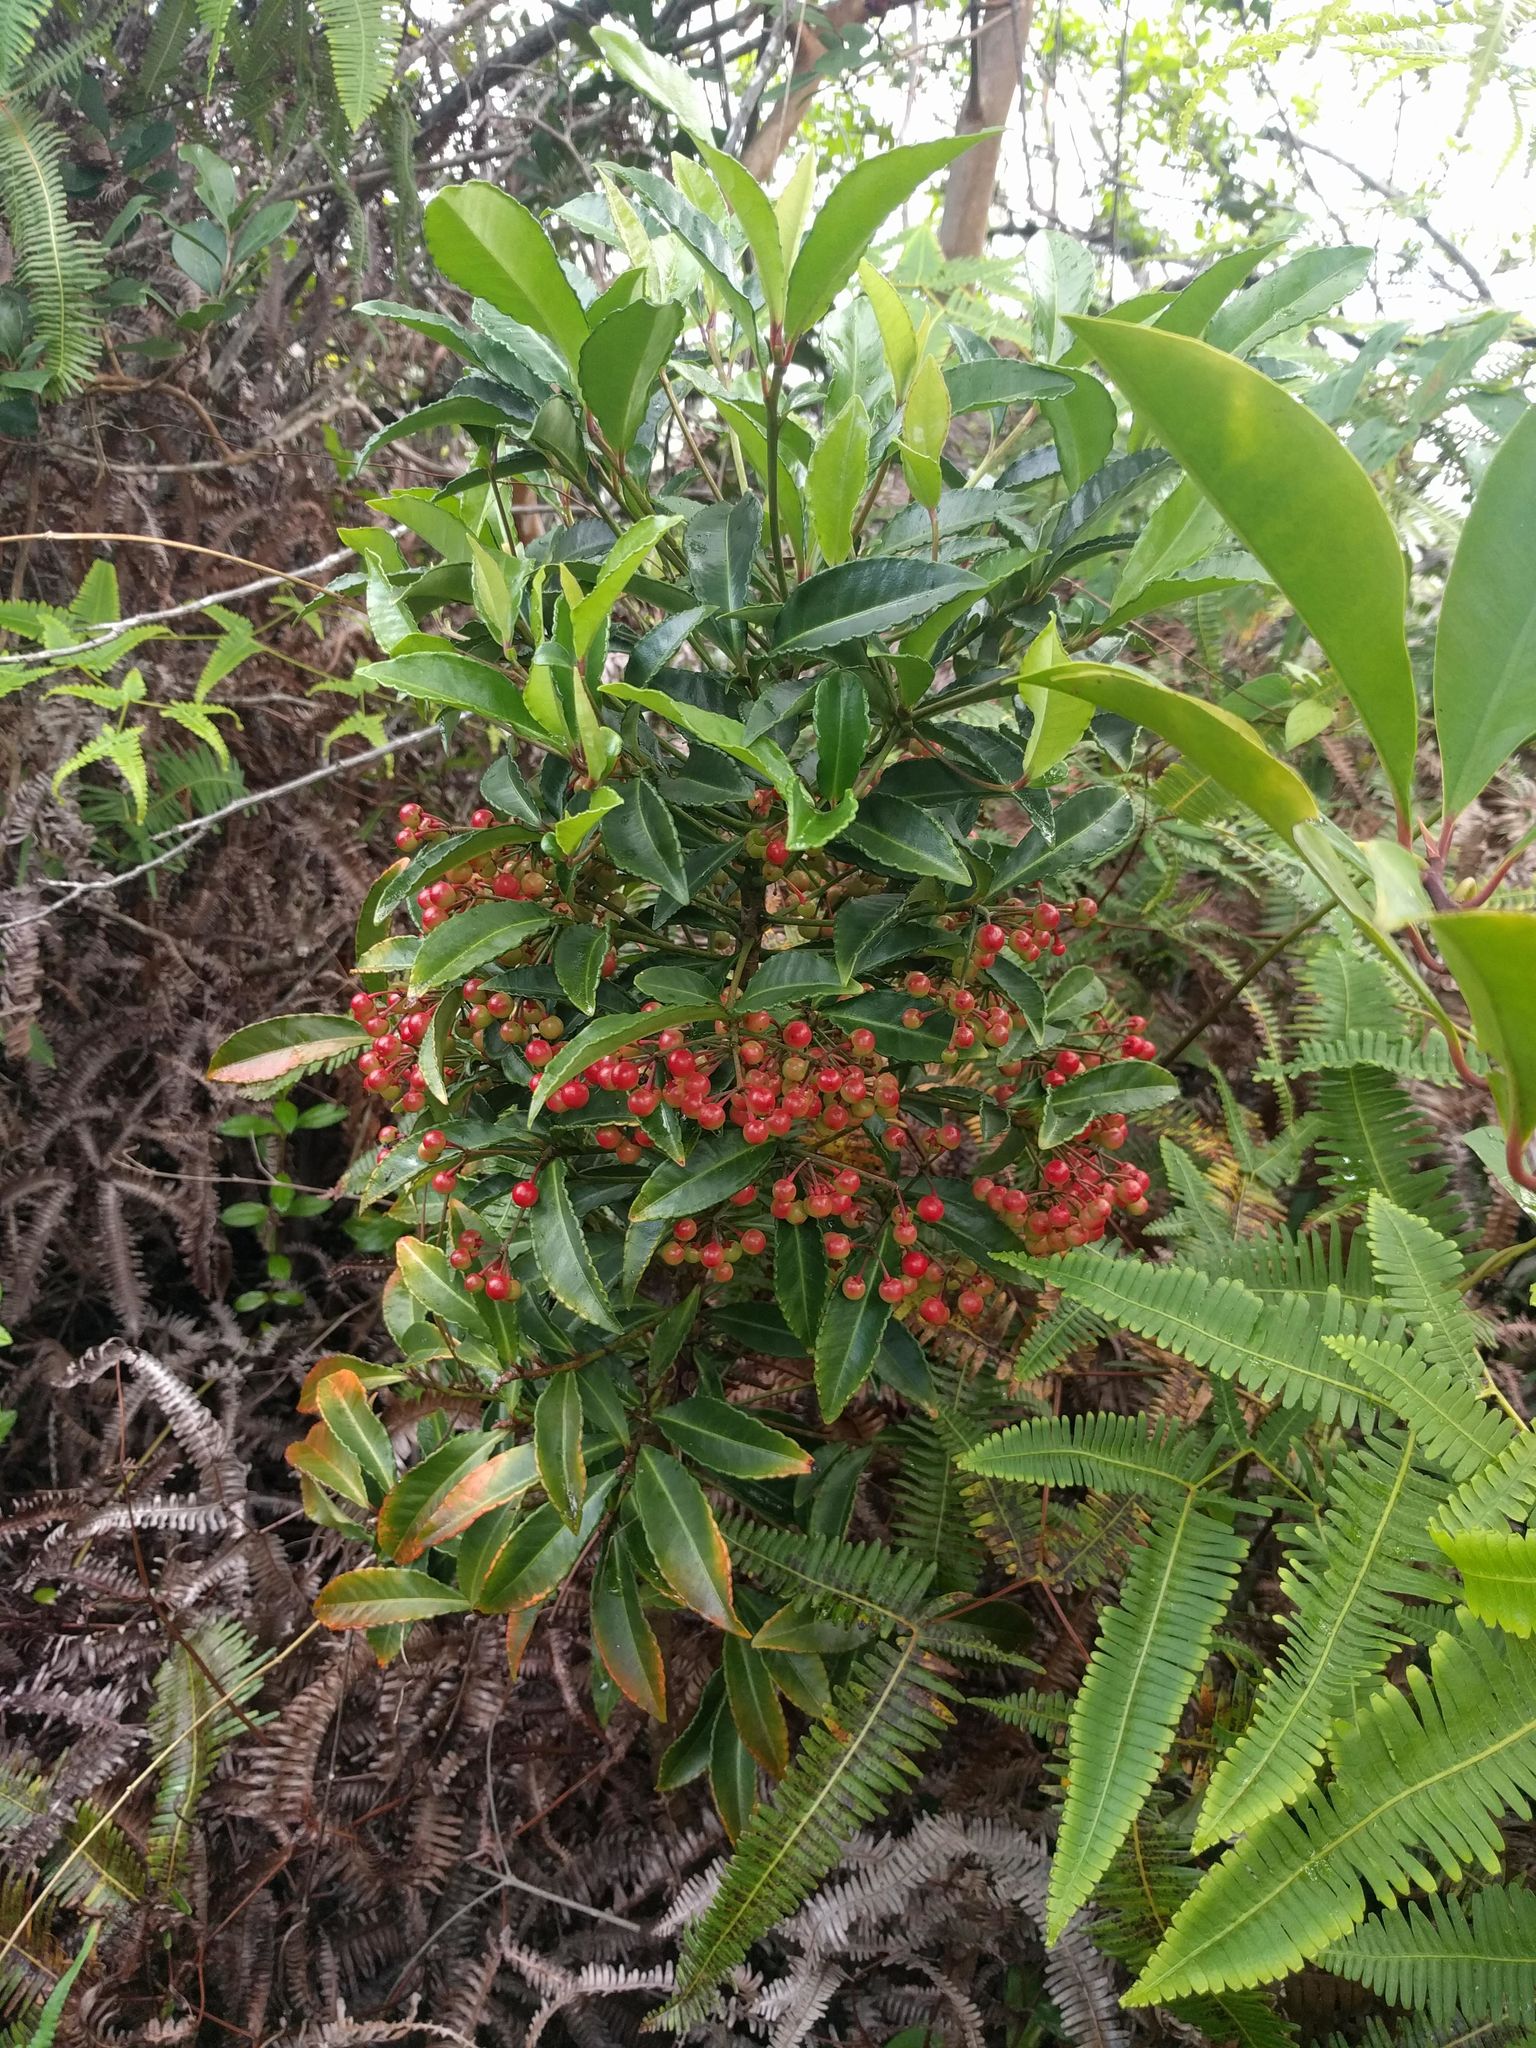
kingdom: Plantae
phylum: Tracheophyta
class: Magnoliopsida
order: Ericales
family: Primulaceae
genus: Ardisia
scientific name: Ardisia crenata
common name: Hen's eyes
